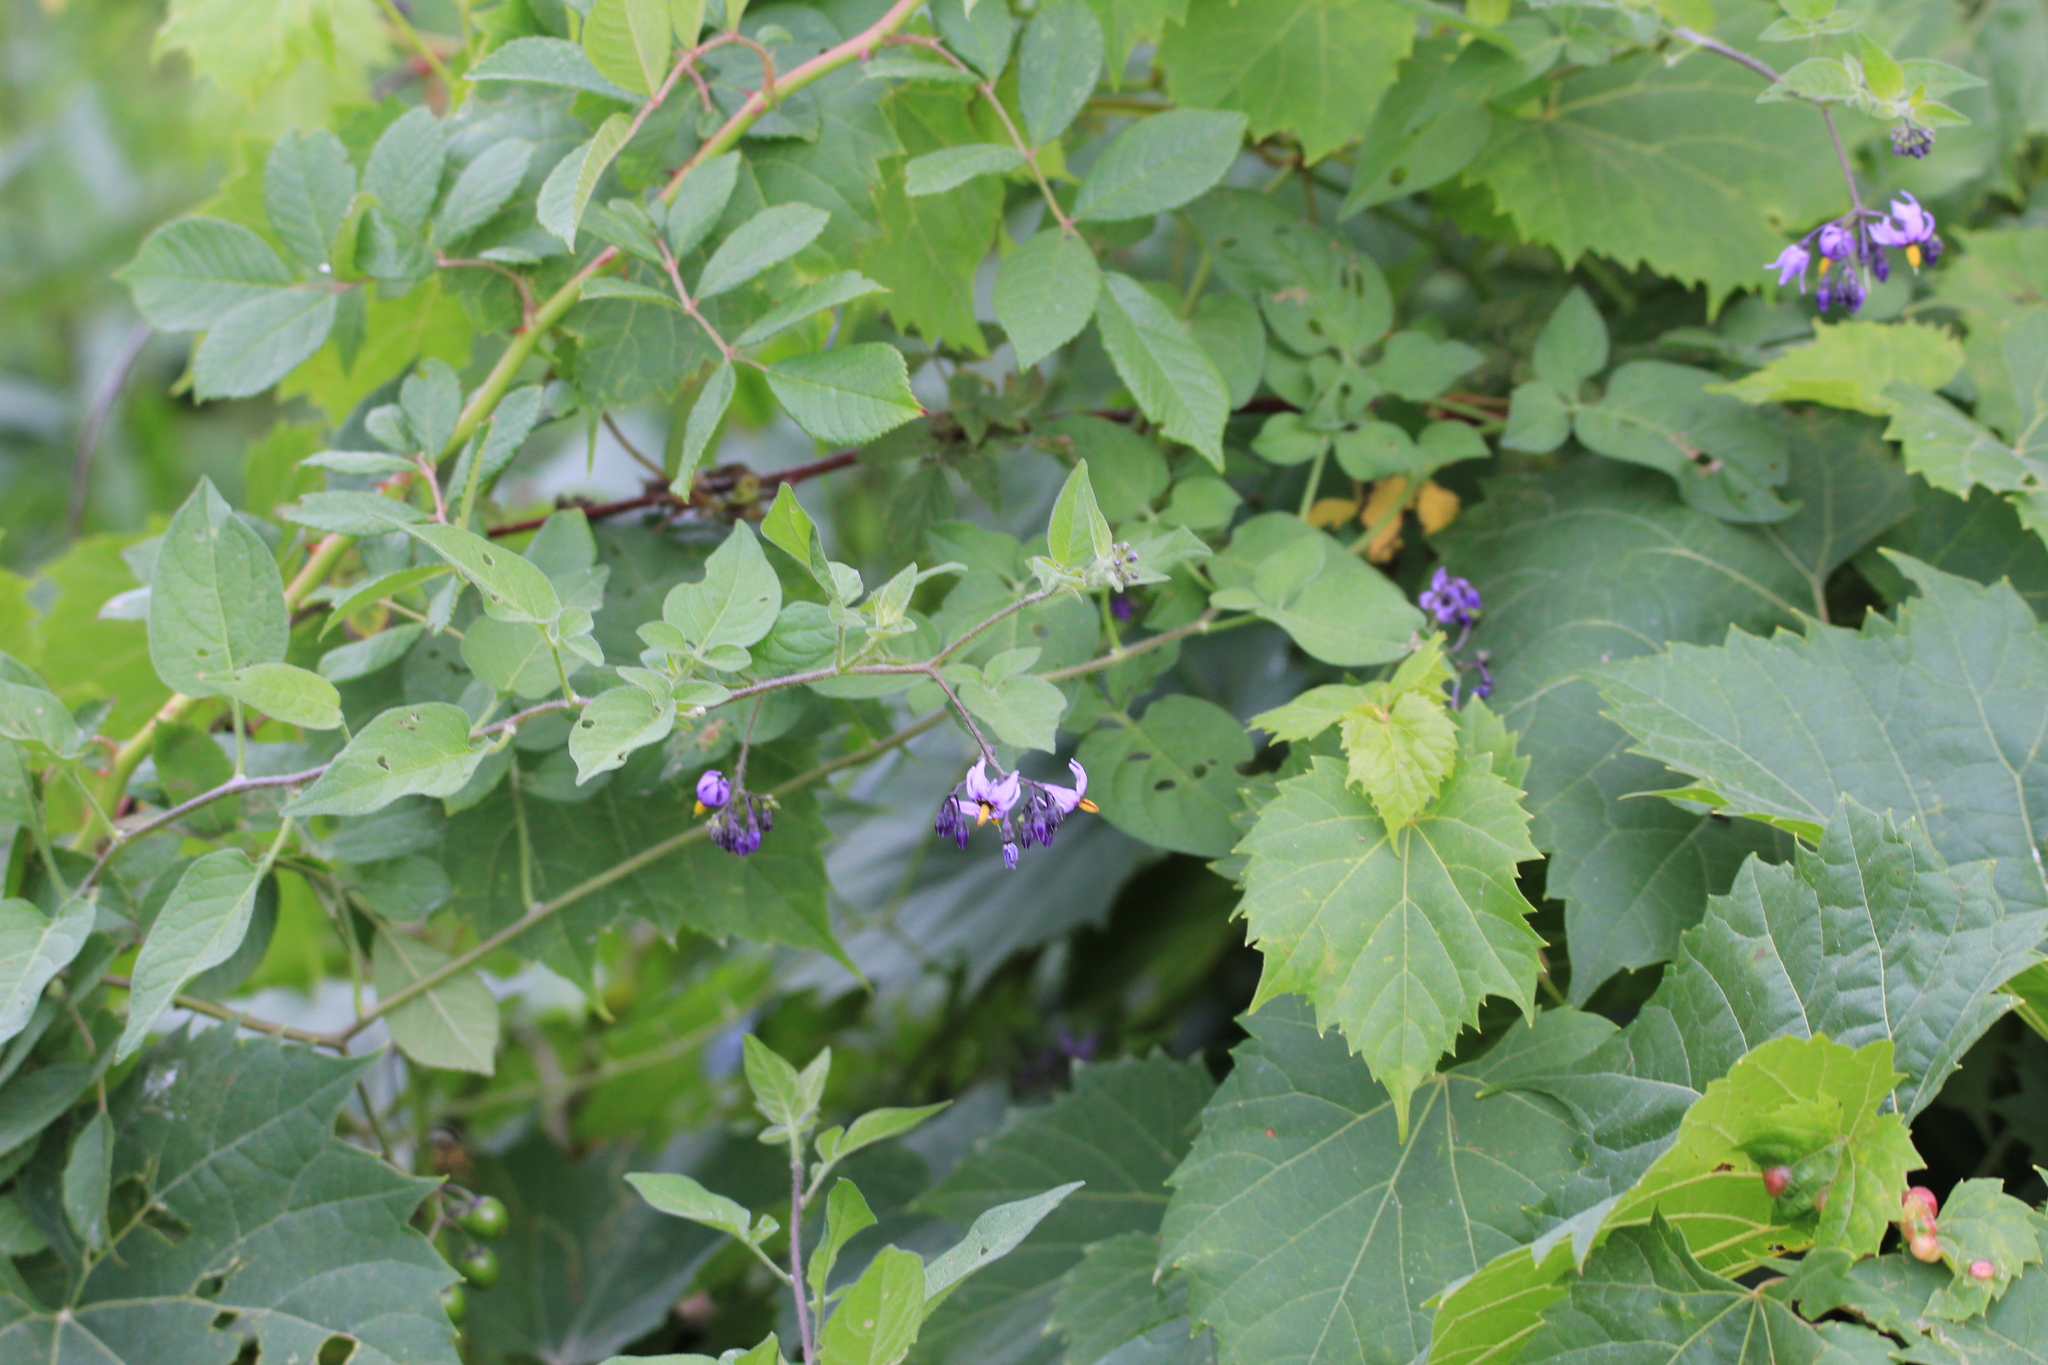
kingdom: Plantae
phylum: Tracheophyta
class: Magnoliopsida
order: Solanales
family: Solanaceae
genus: Solanum
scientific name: Solanum dulcamara
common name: Climbing nightshade
